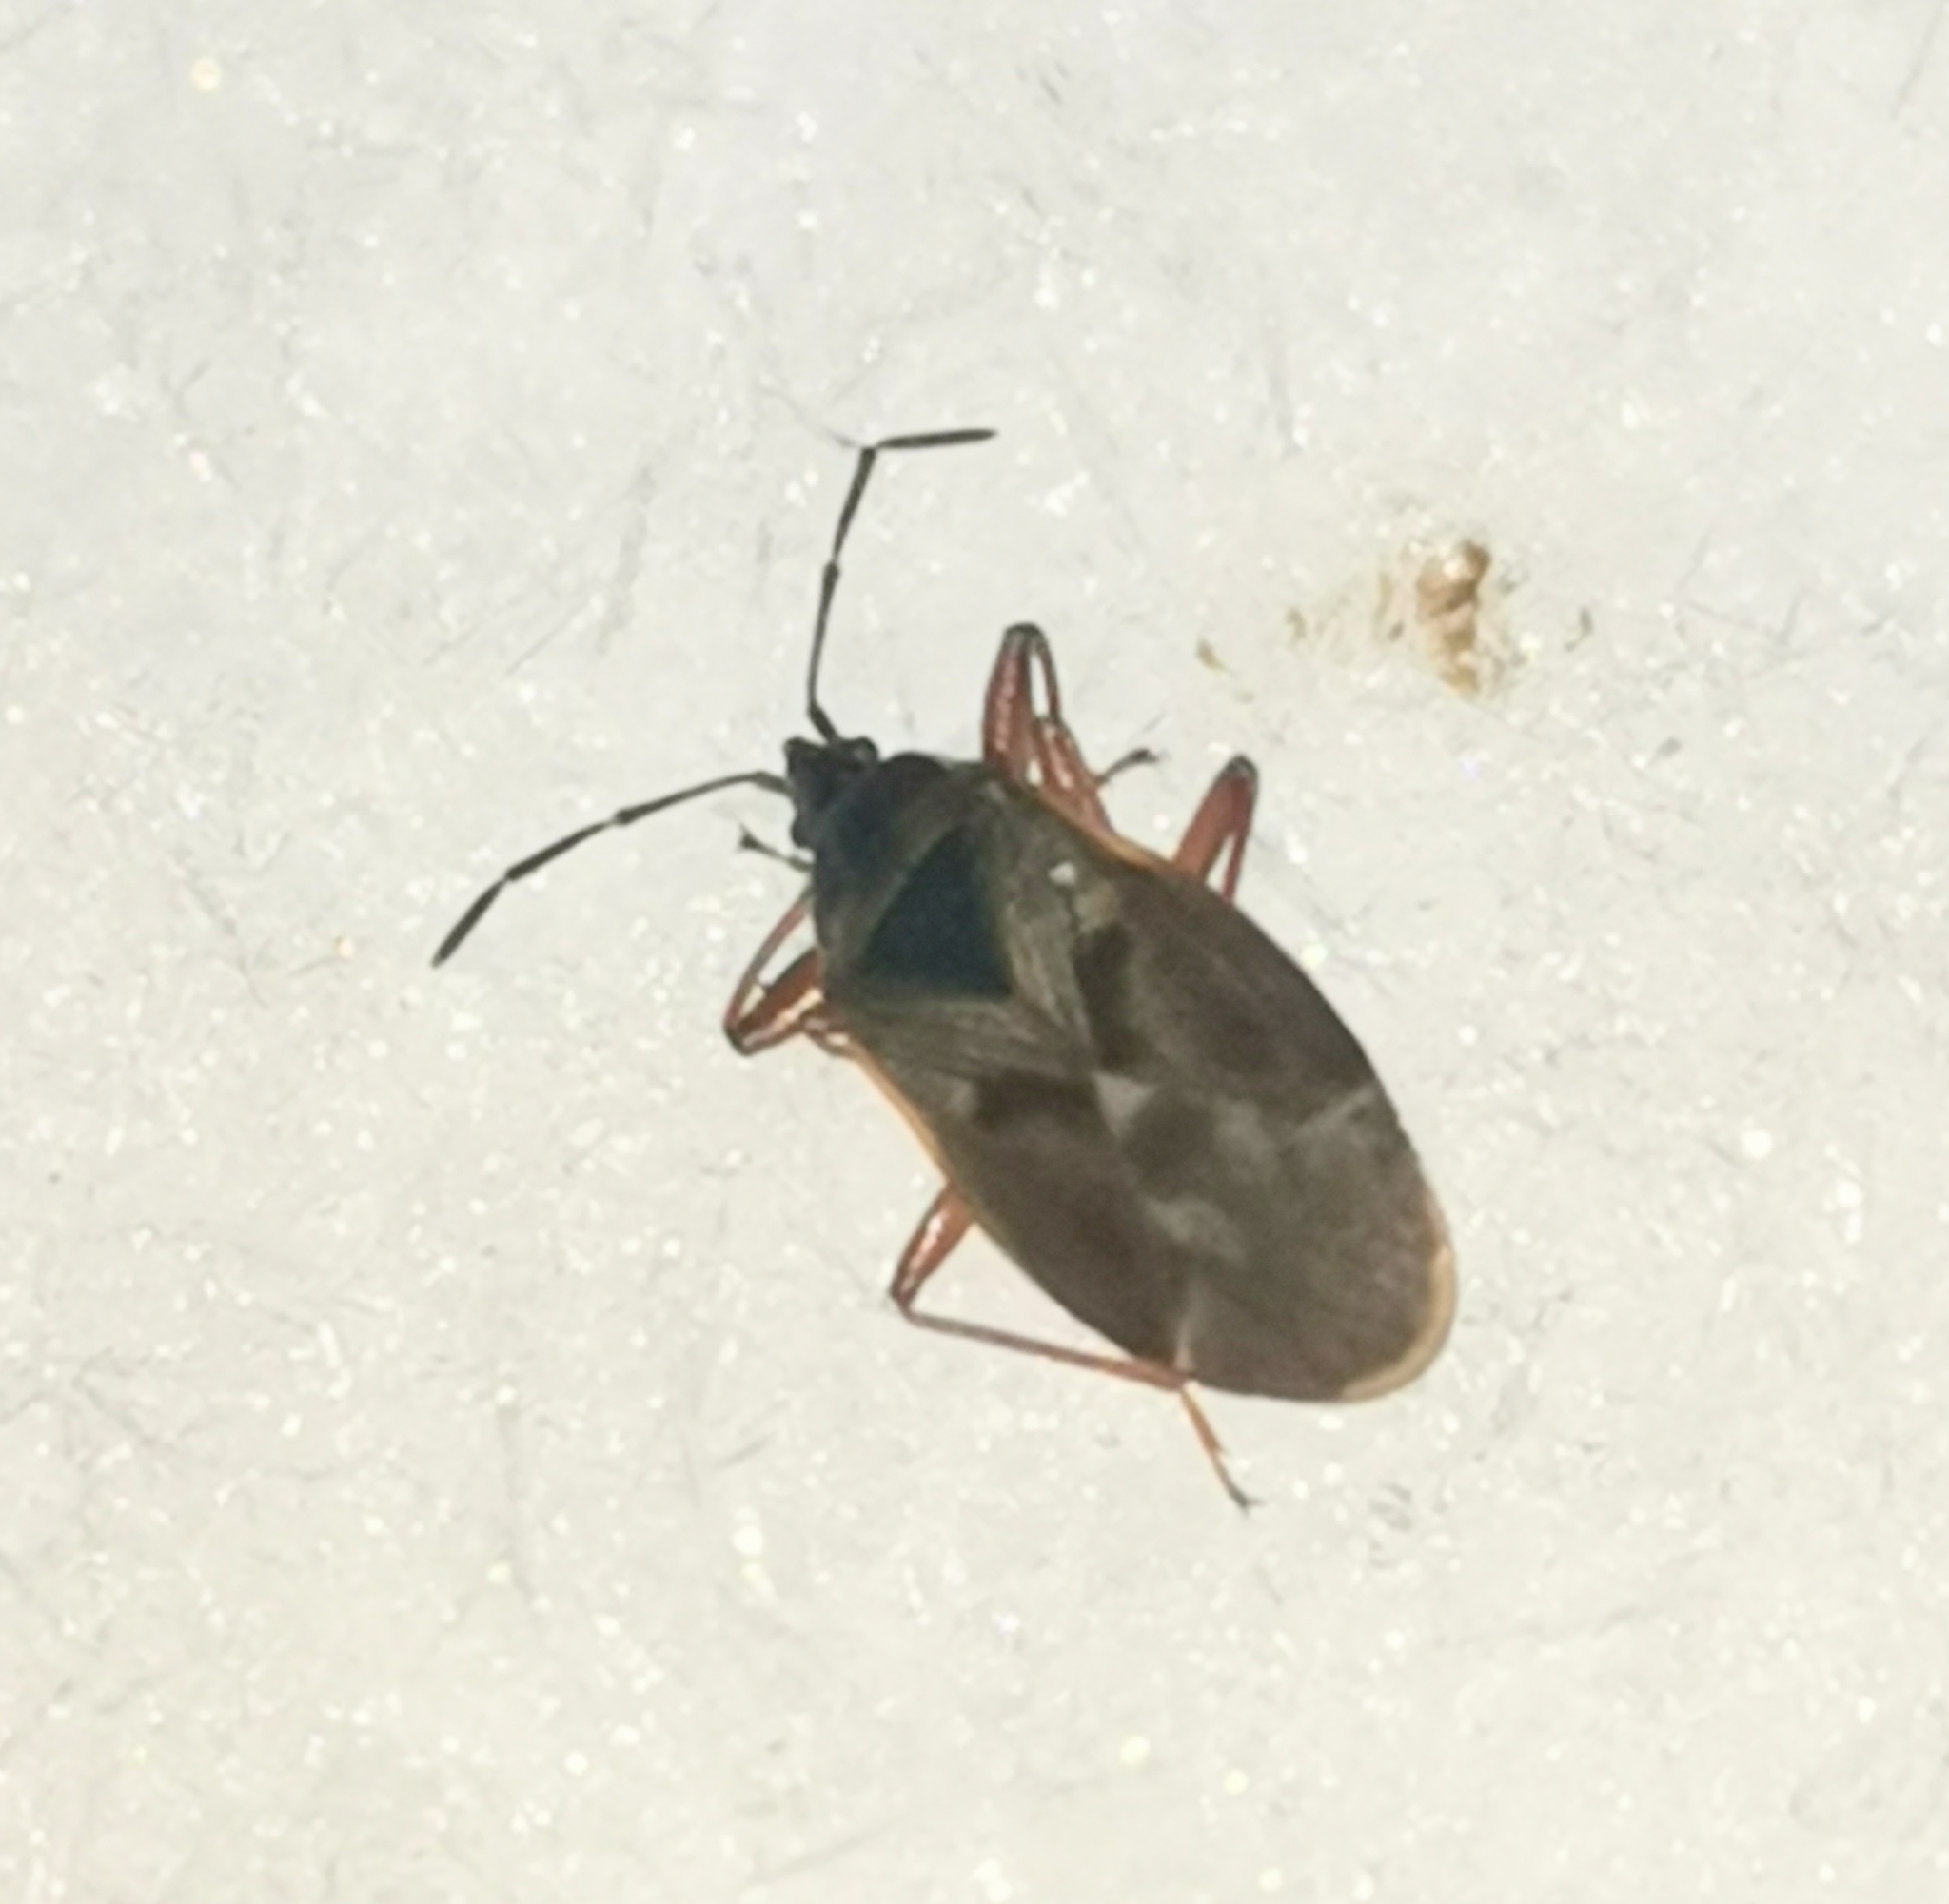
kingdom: Animalia
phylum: Arthropoda
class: Insecta
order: Hemiptera
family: Rhyparochromidae
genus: Gastrodes
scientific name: Gastrodes abietum
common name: Spruce cone bug
